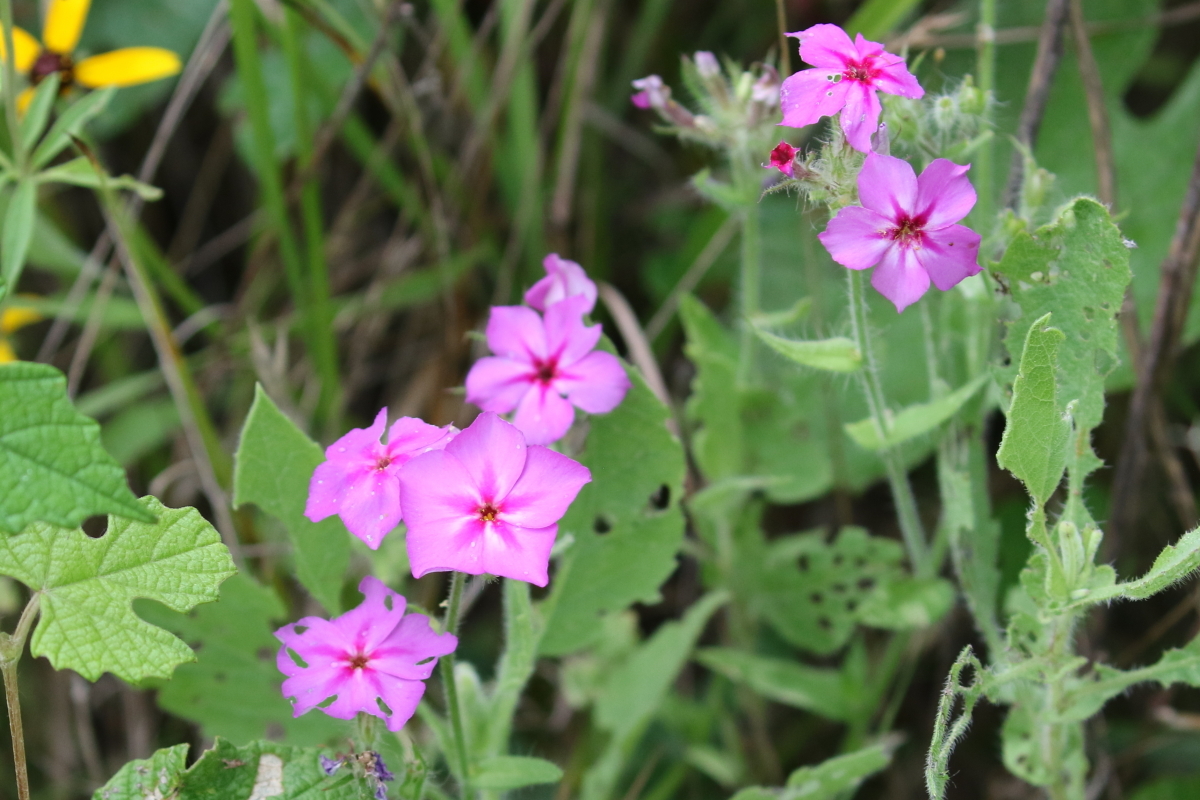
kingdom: Plantae
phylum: Tracheophyta
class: Magnoliopsida
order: Ericales
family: Polemoniaceae
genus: Phlox
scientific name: Phlox drummondii
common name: Drummond's phlox
